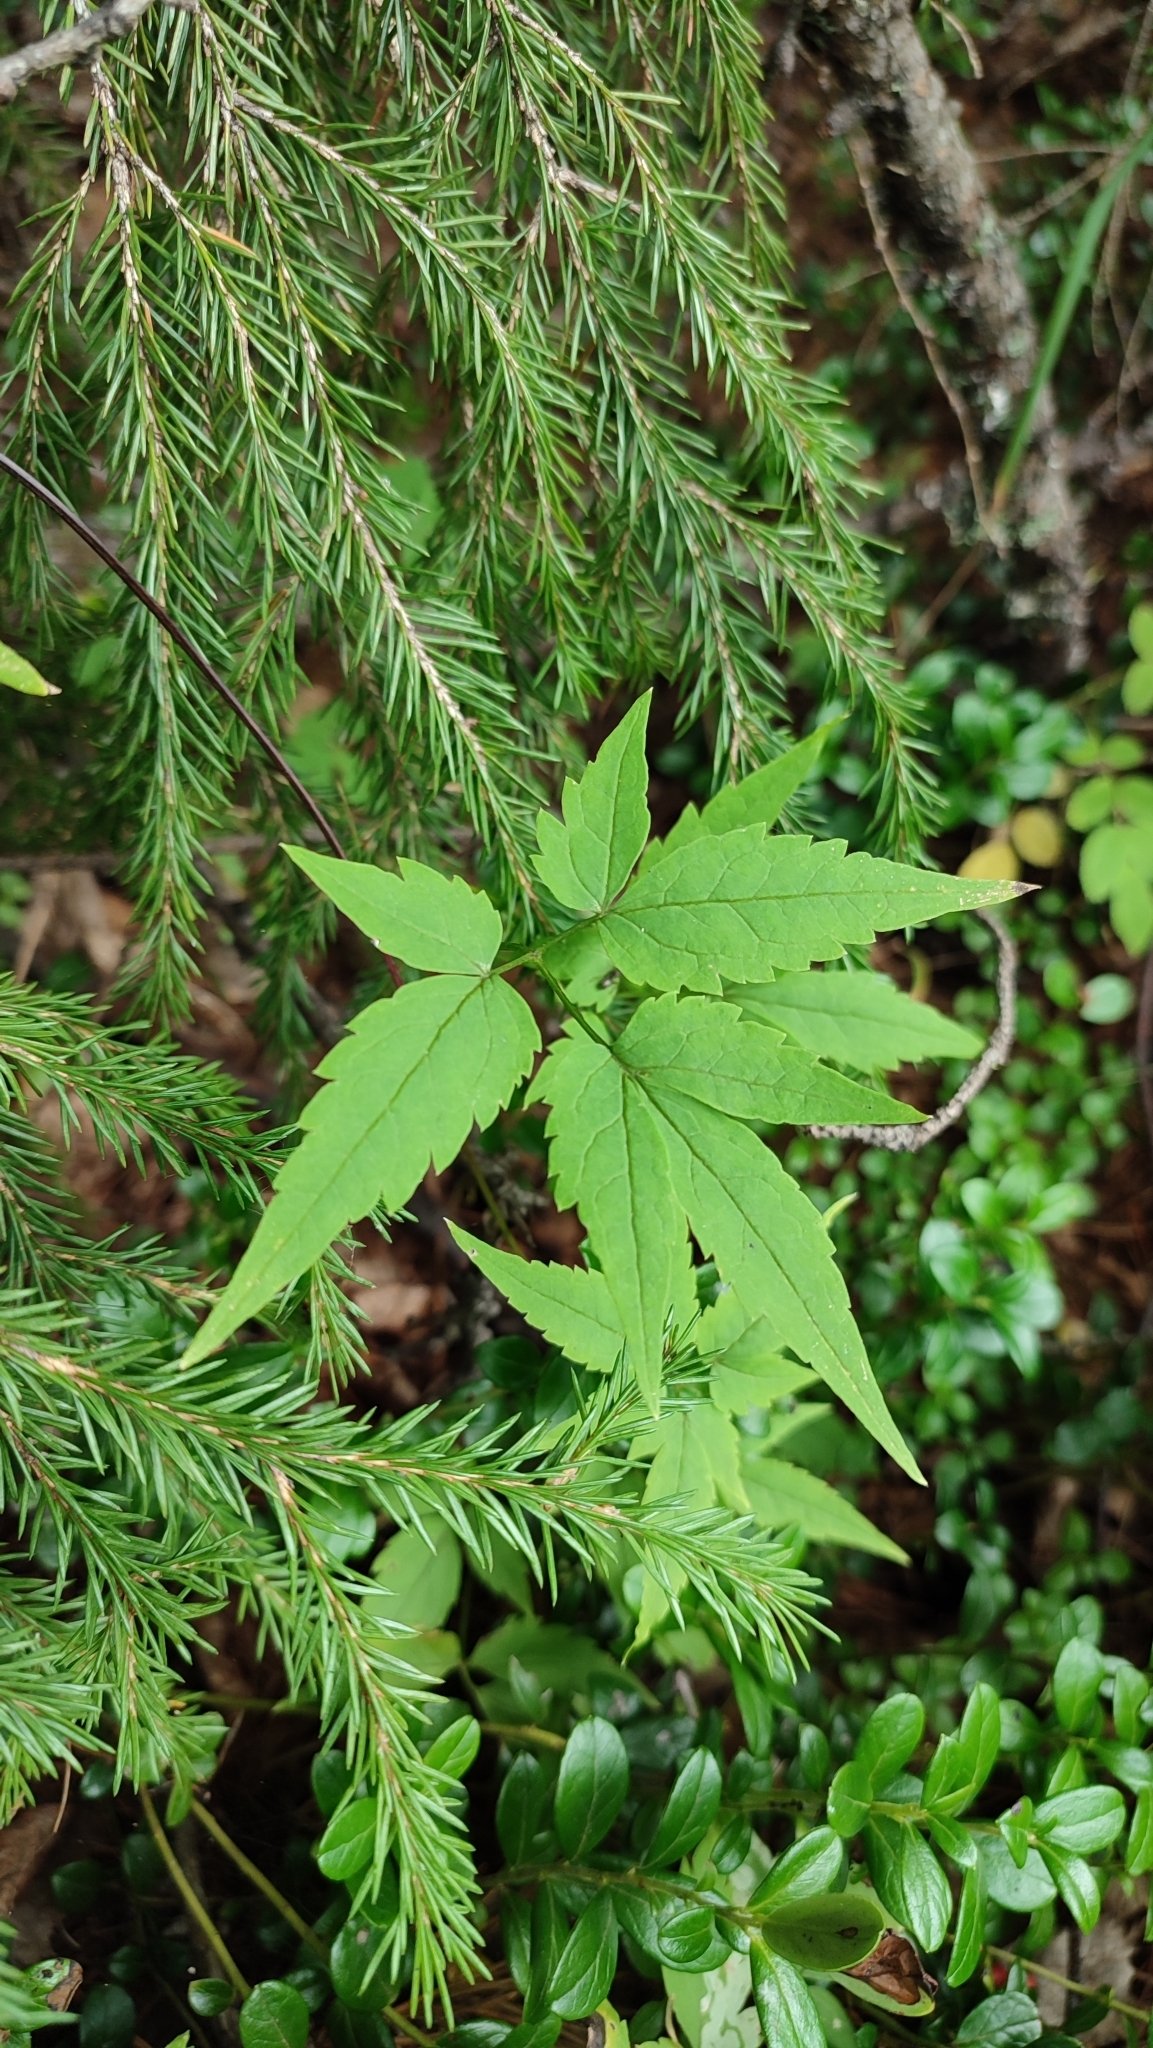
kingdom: Plantae
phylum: Tracheophyta
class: Magnoliopsida
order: Ranunculales
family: Ranunculaceae
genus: Clematis
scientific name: Clematis sibirica
